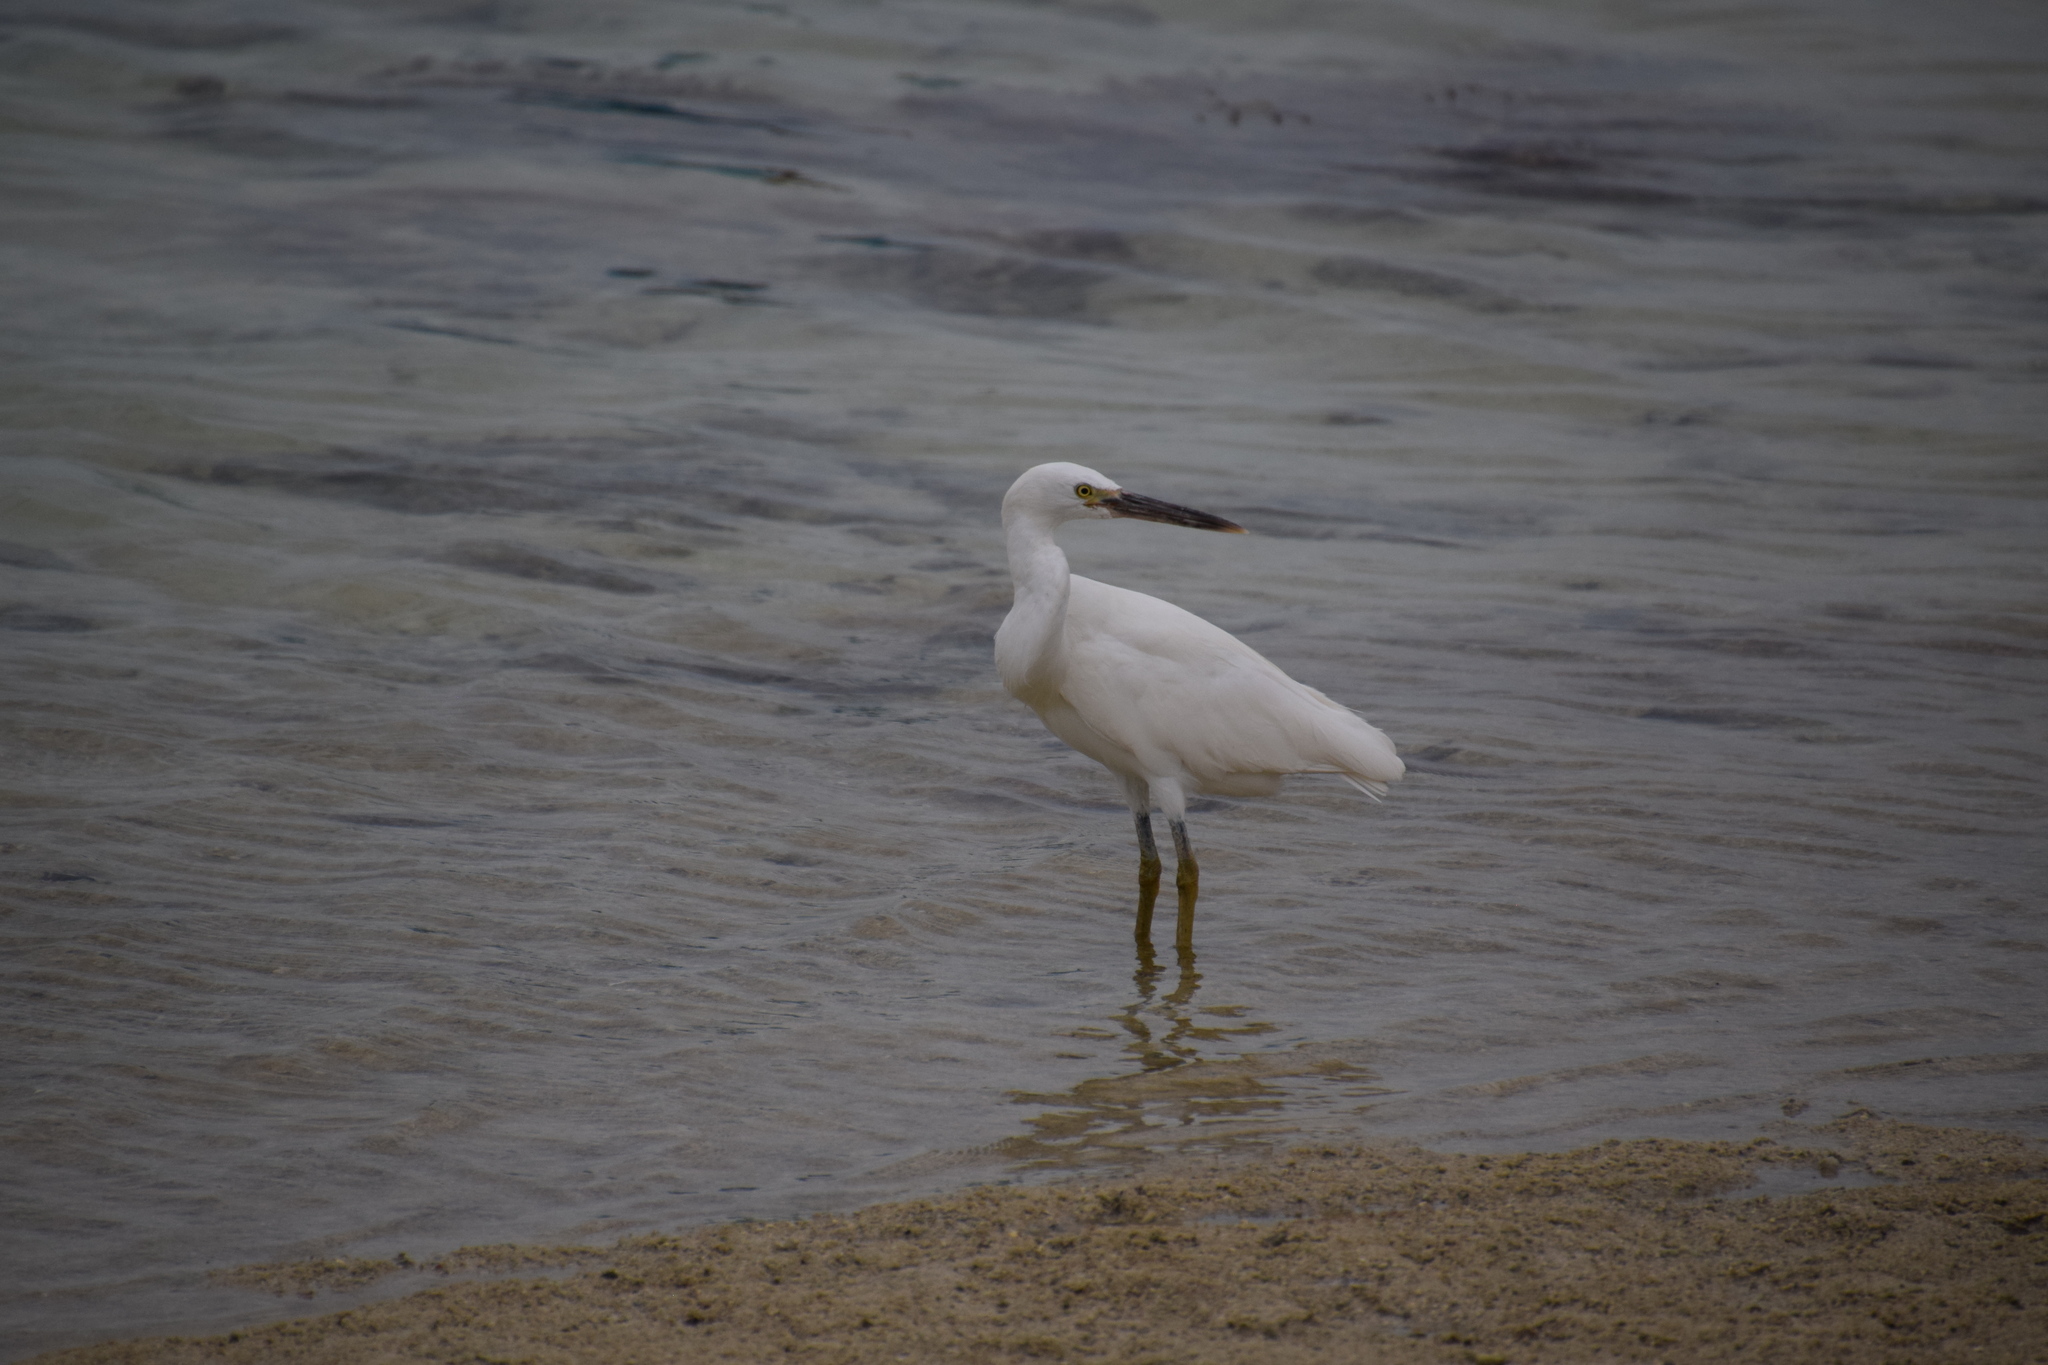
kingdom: Animalia
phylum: Chordata
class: Aves
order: Pelecaniformes
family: Ardeidae
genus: Egretta
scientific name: Egretta sacra
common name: Pacific reef heron
